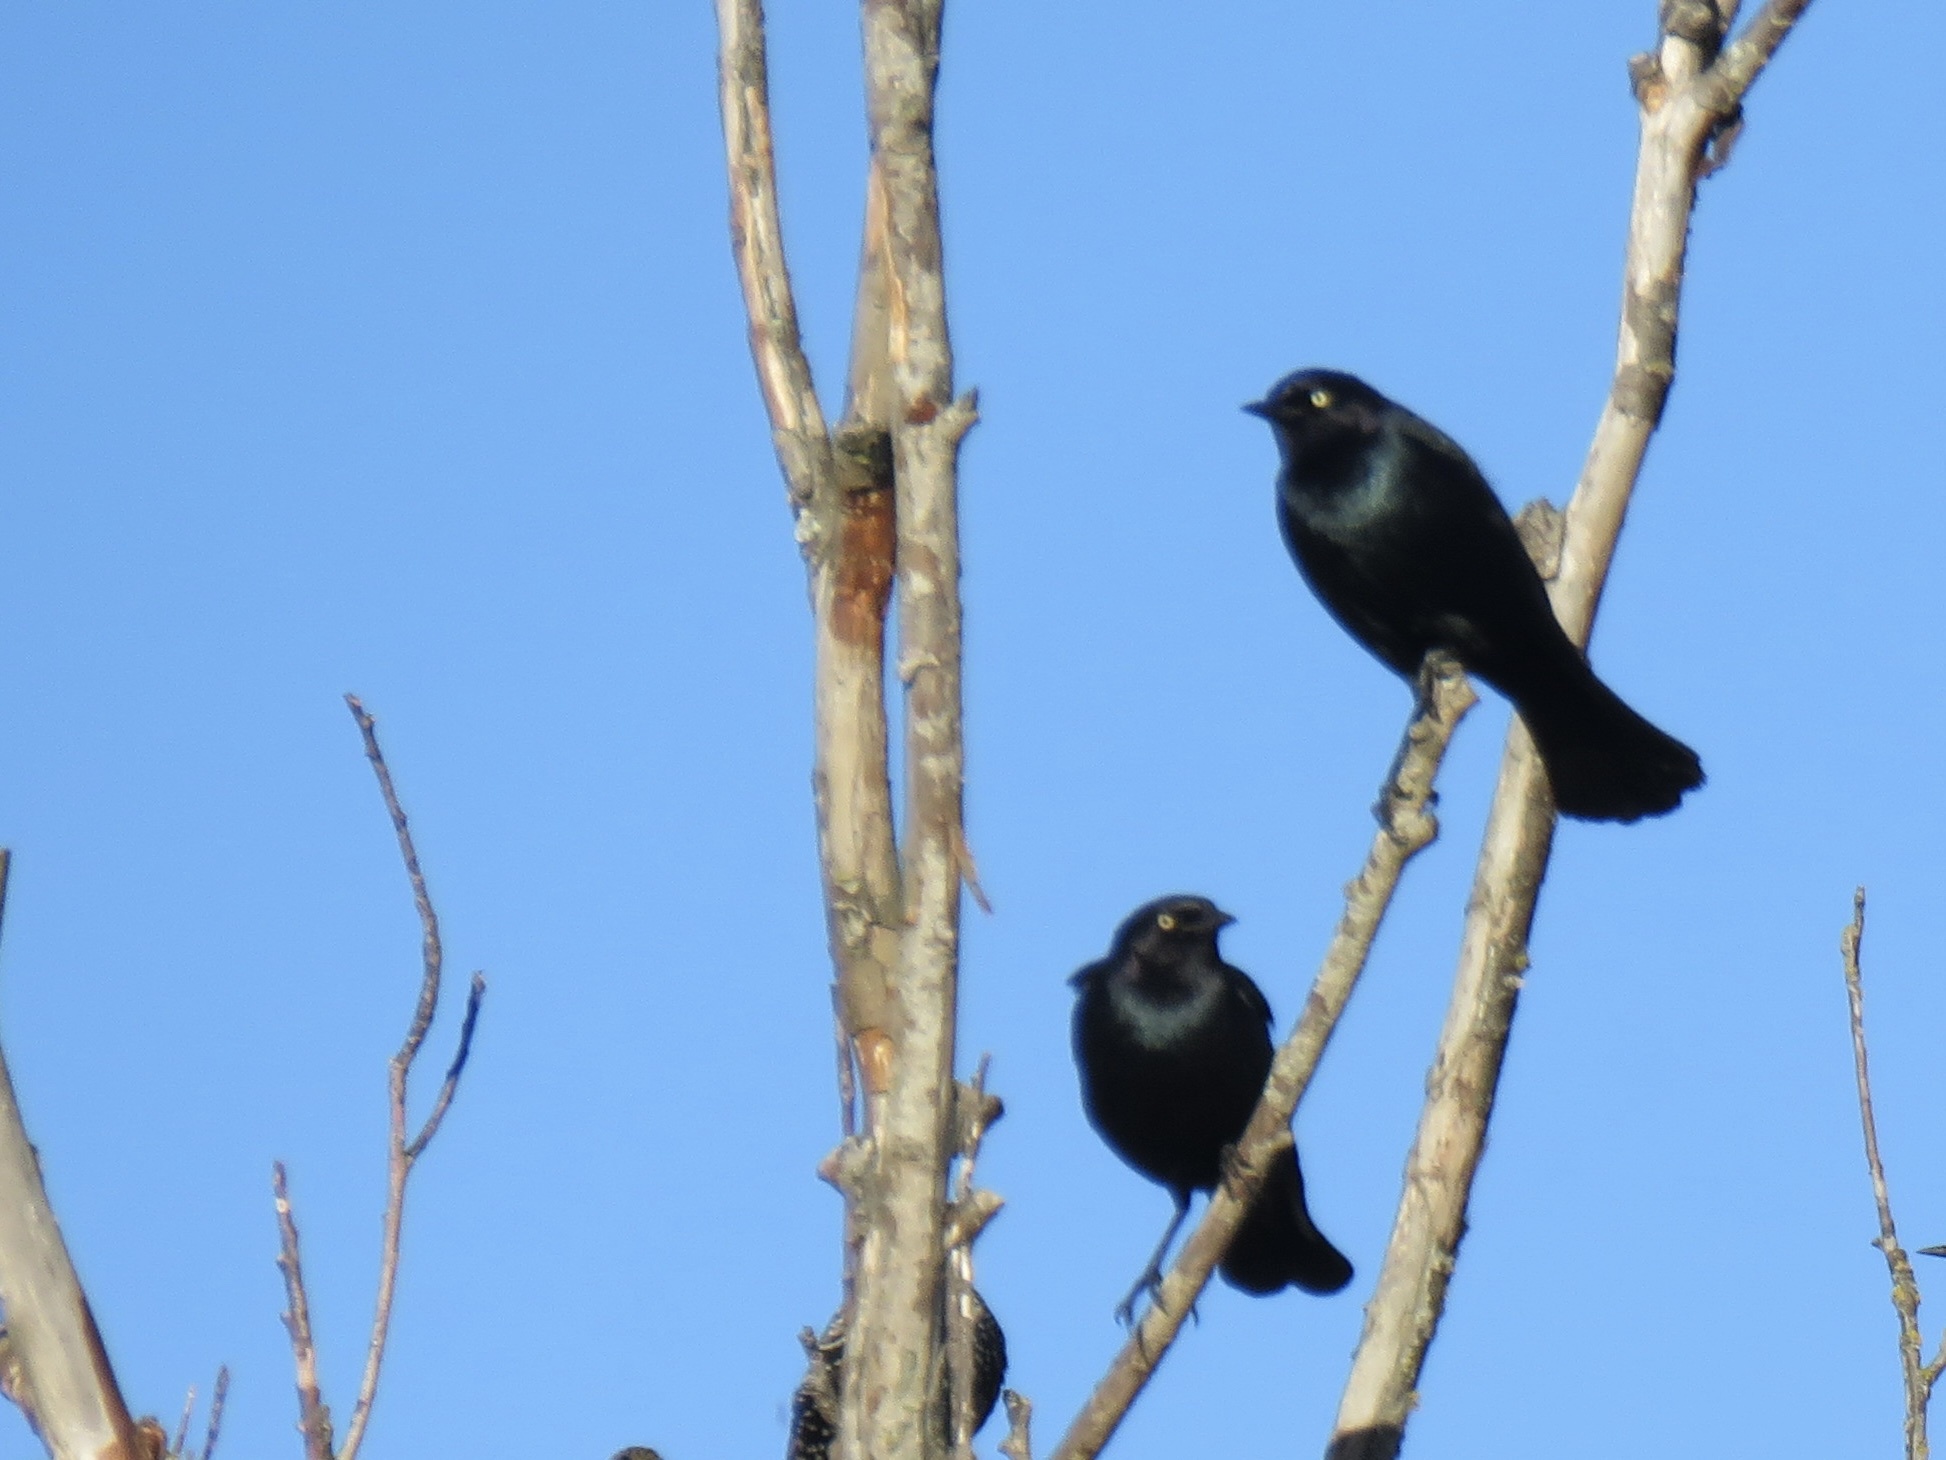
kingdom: Animalia
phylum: Chordata
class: Aves
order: Passeriformes
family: Icteridae
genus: Euphagus
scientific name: Euphagus cyanocephalus
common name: Brewer's blackbird
